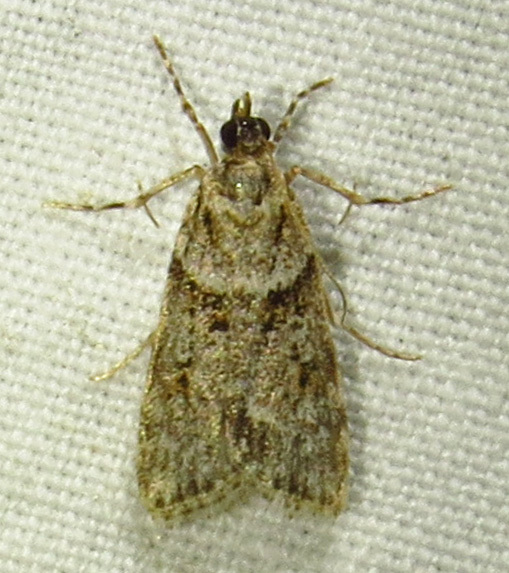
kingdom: Animalia
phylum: Arthropoda
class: Insecta
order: Lepidoptera
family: Crambidae
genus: Scoparia
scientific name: Scoparia biplagialis
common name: Double-striped scoparia moth
